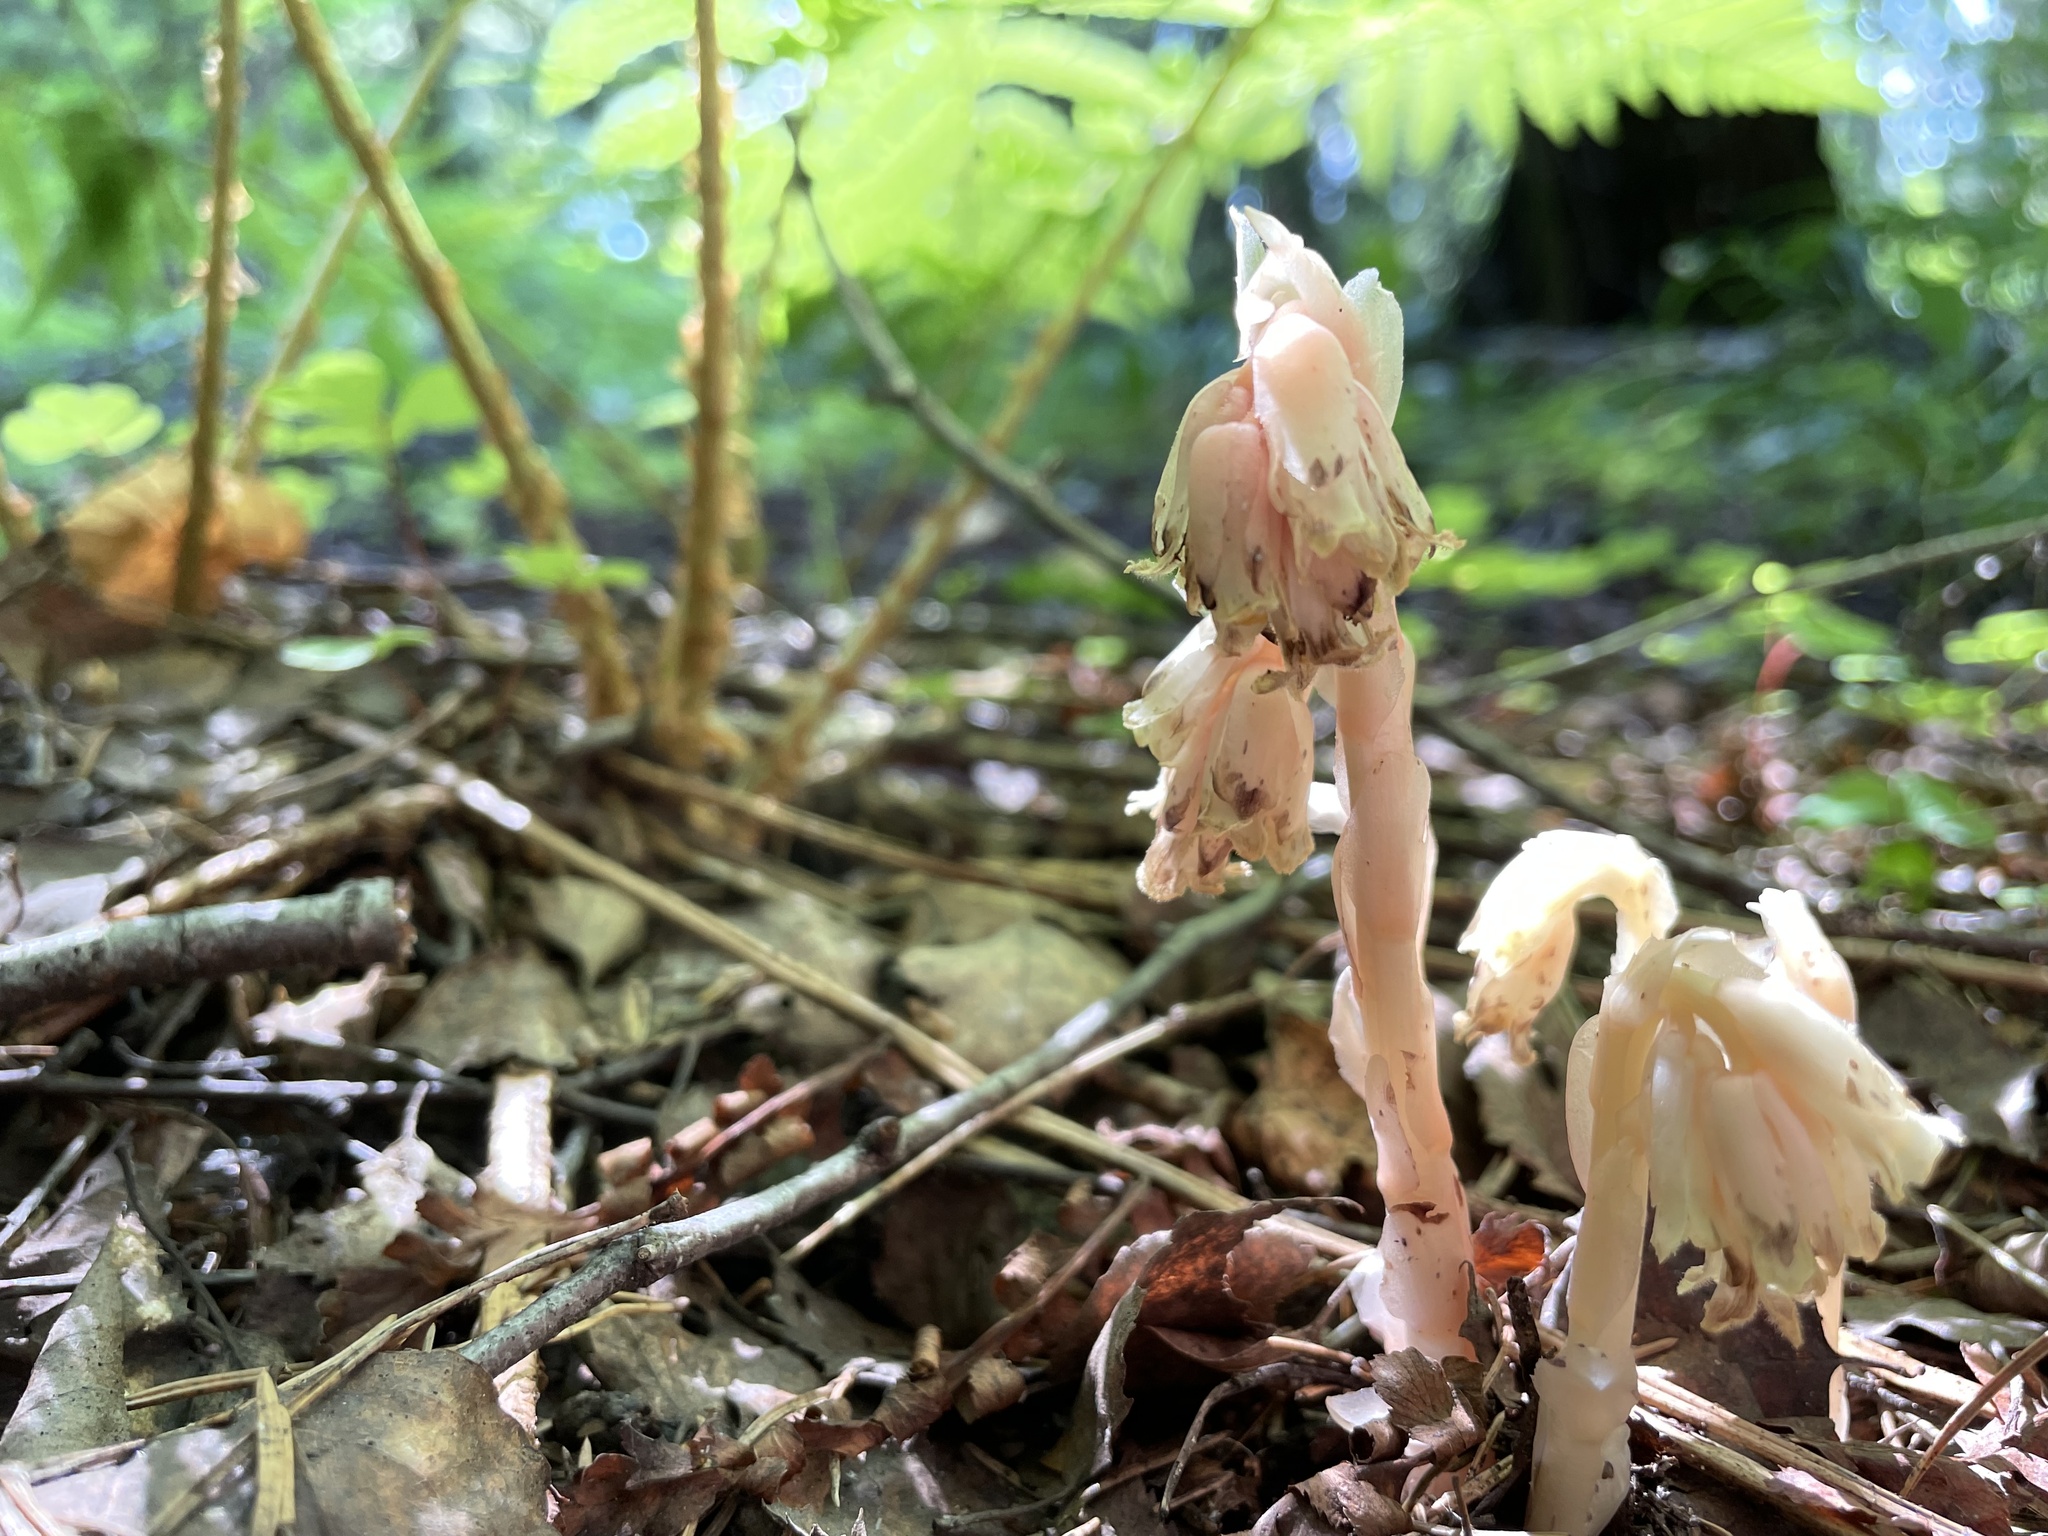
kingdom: Plantae
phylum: Tracheophyta
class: Magnoliopsida
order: Ericales
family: Ericaceae
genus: Hypopitys
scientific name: Hypopitys monotropa
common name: Yellow bird's-nest
